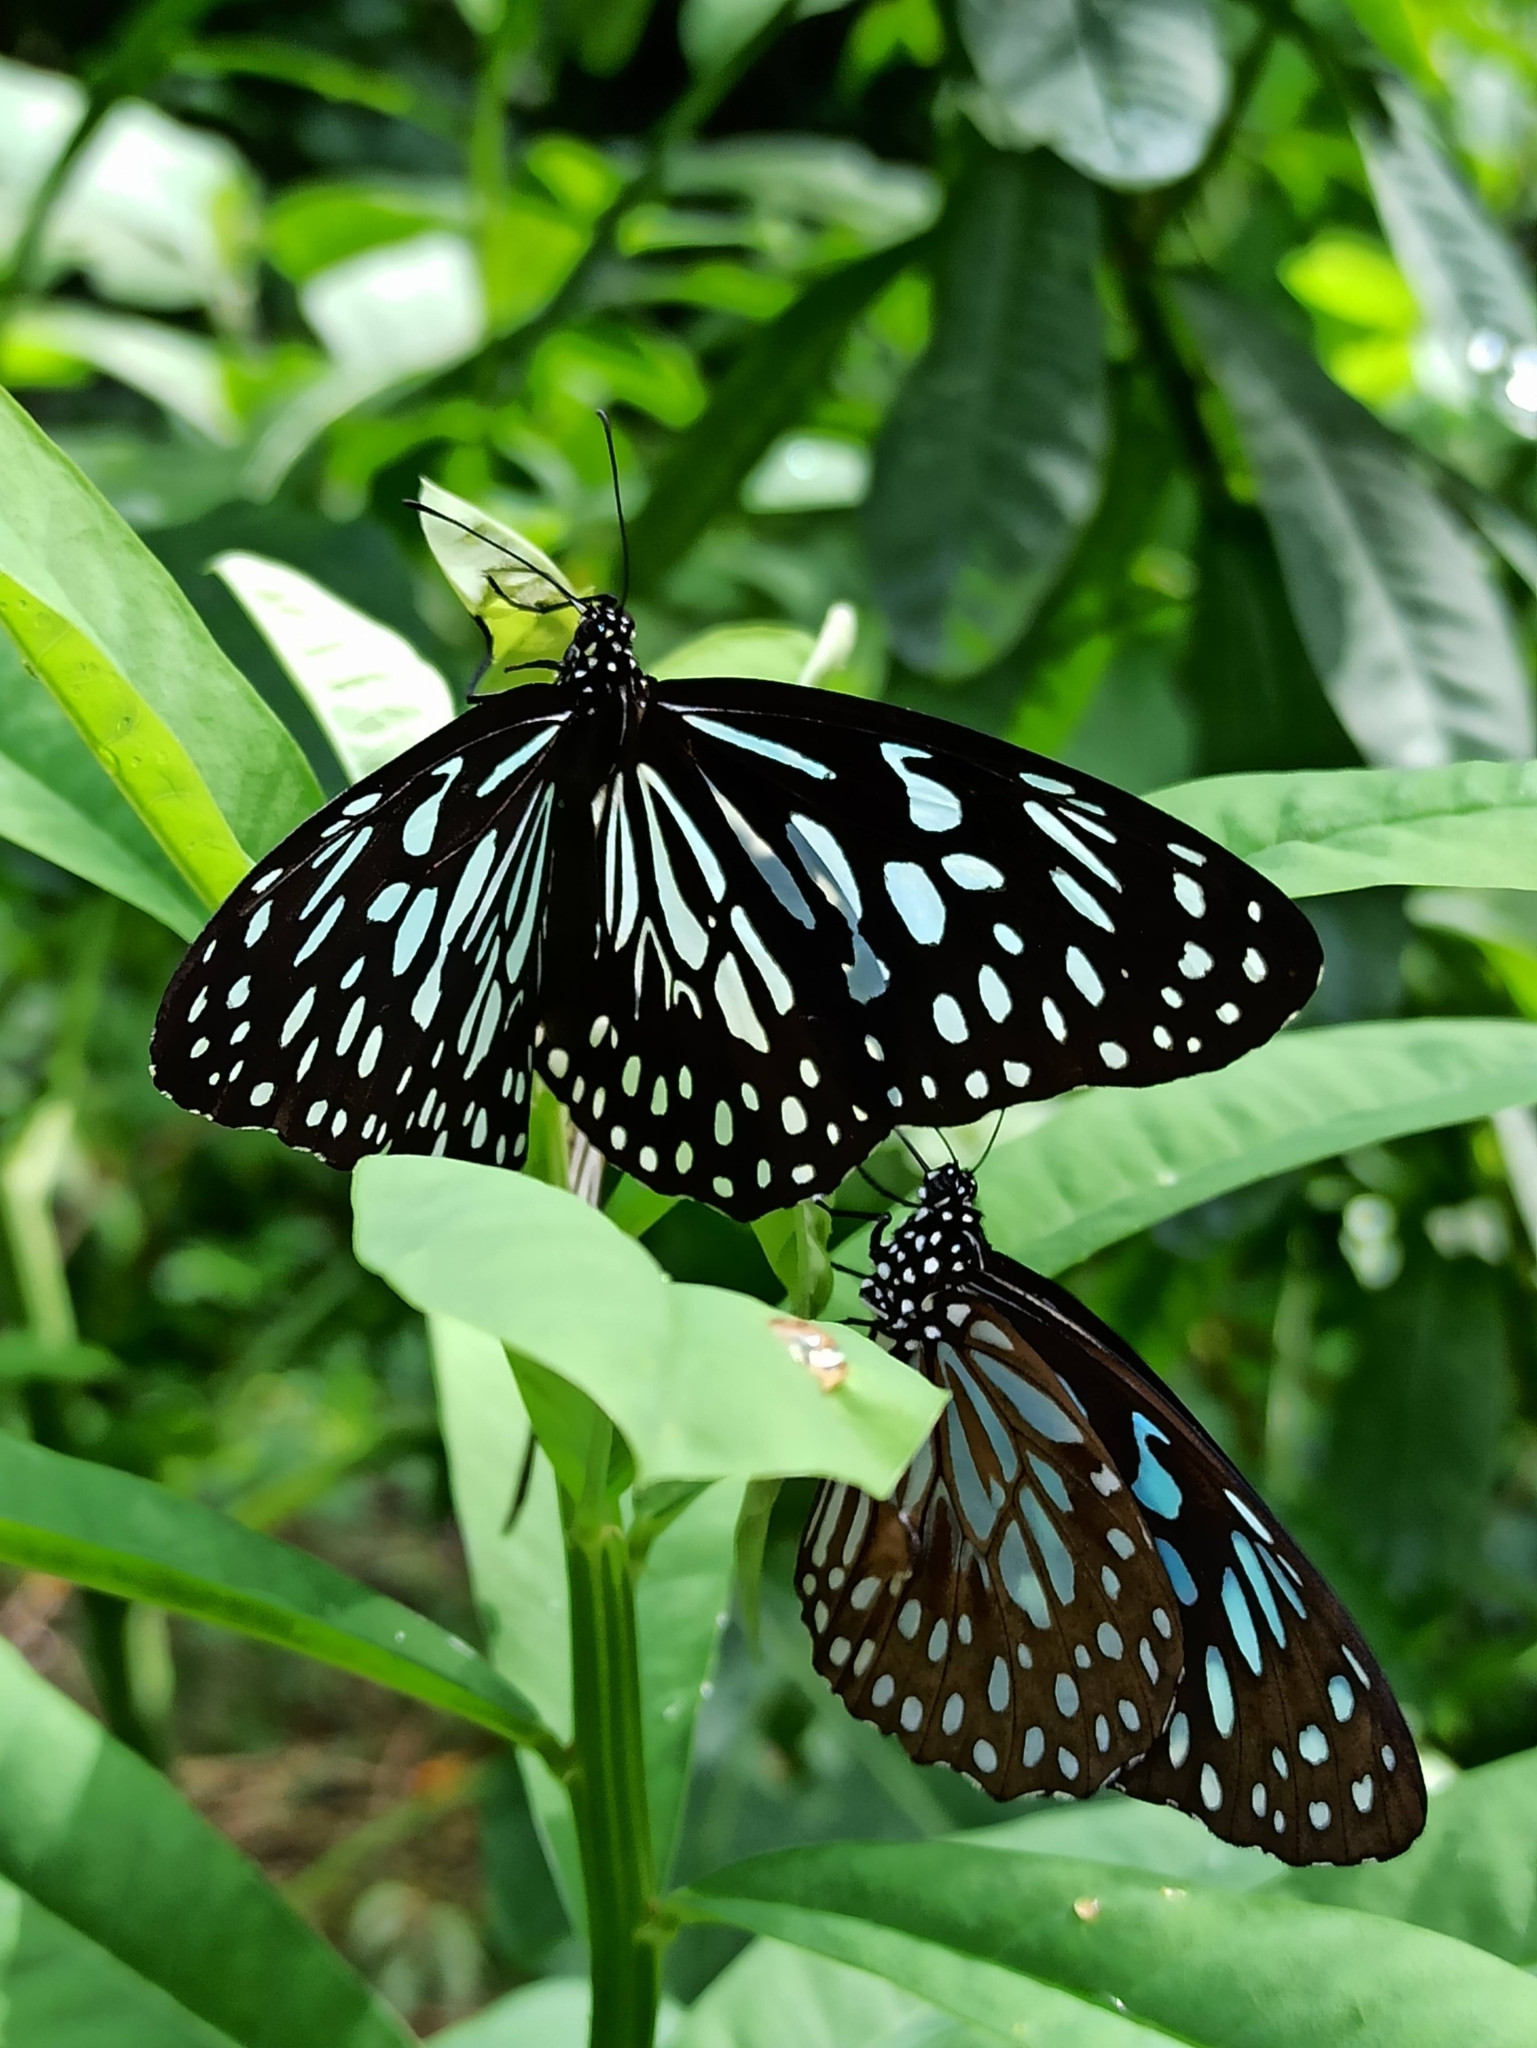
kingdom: Animalia
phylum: Arthropoda
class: Insecta
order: Lepidoptera
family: Nymphalidae
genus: Tirumala
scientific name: Tirumala septentrionis
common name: Dark blue tiger butterfly
